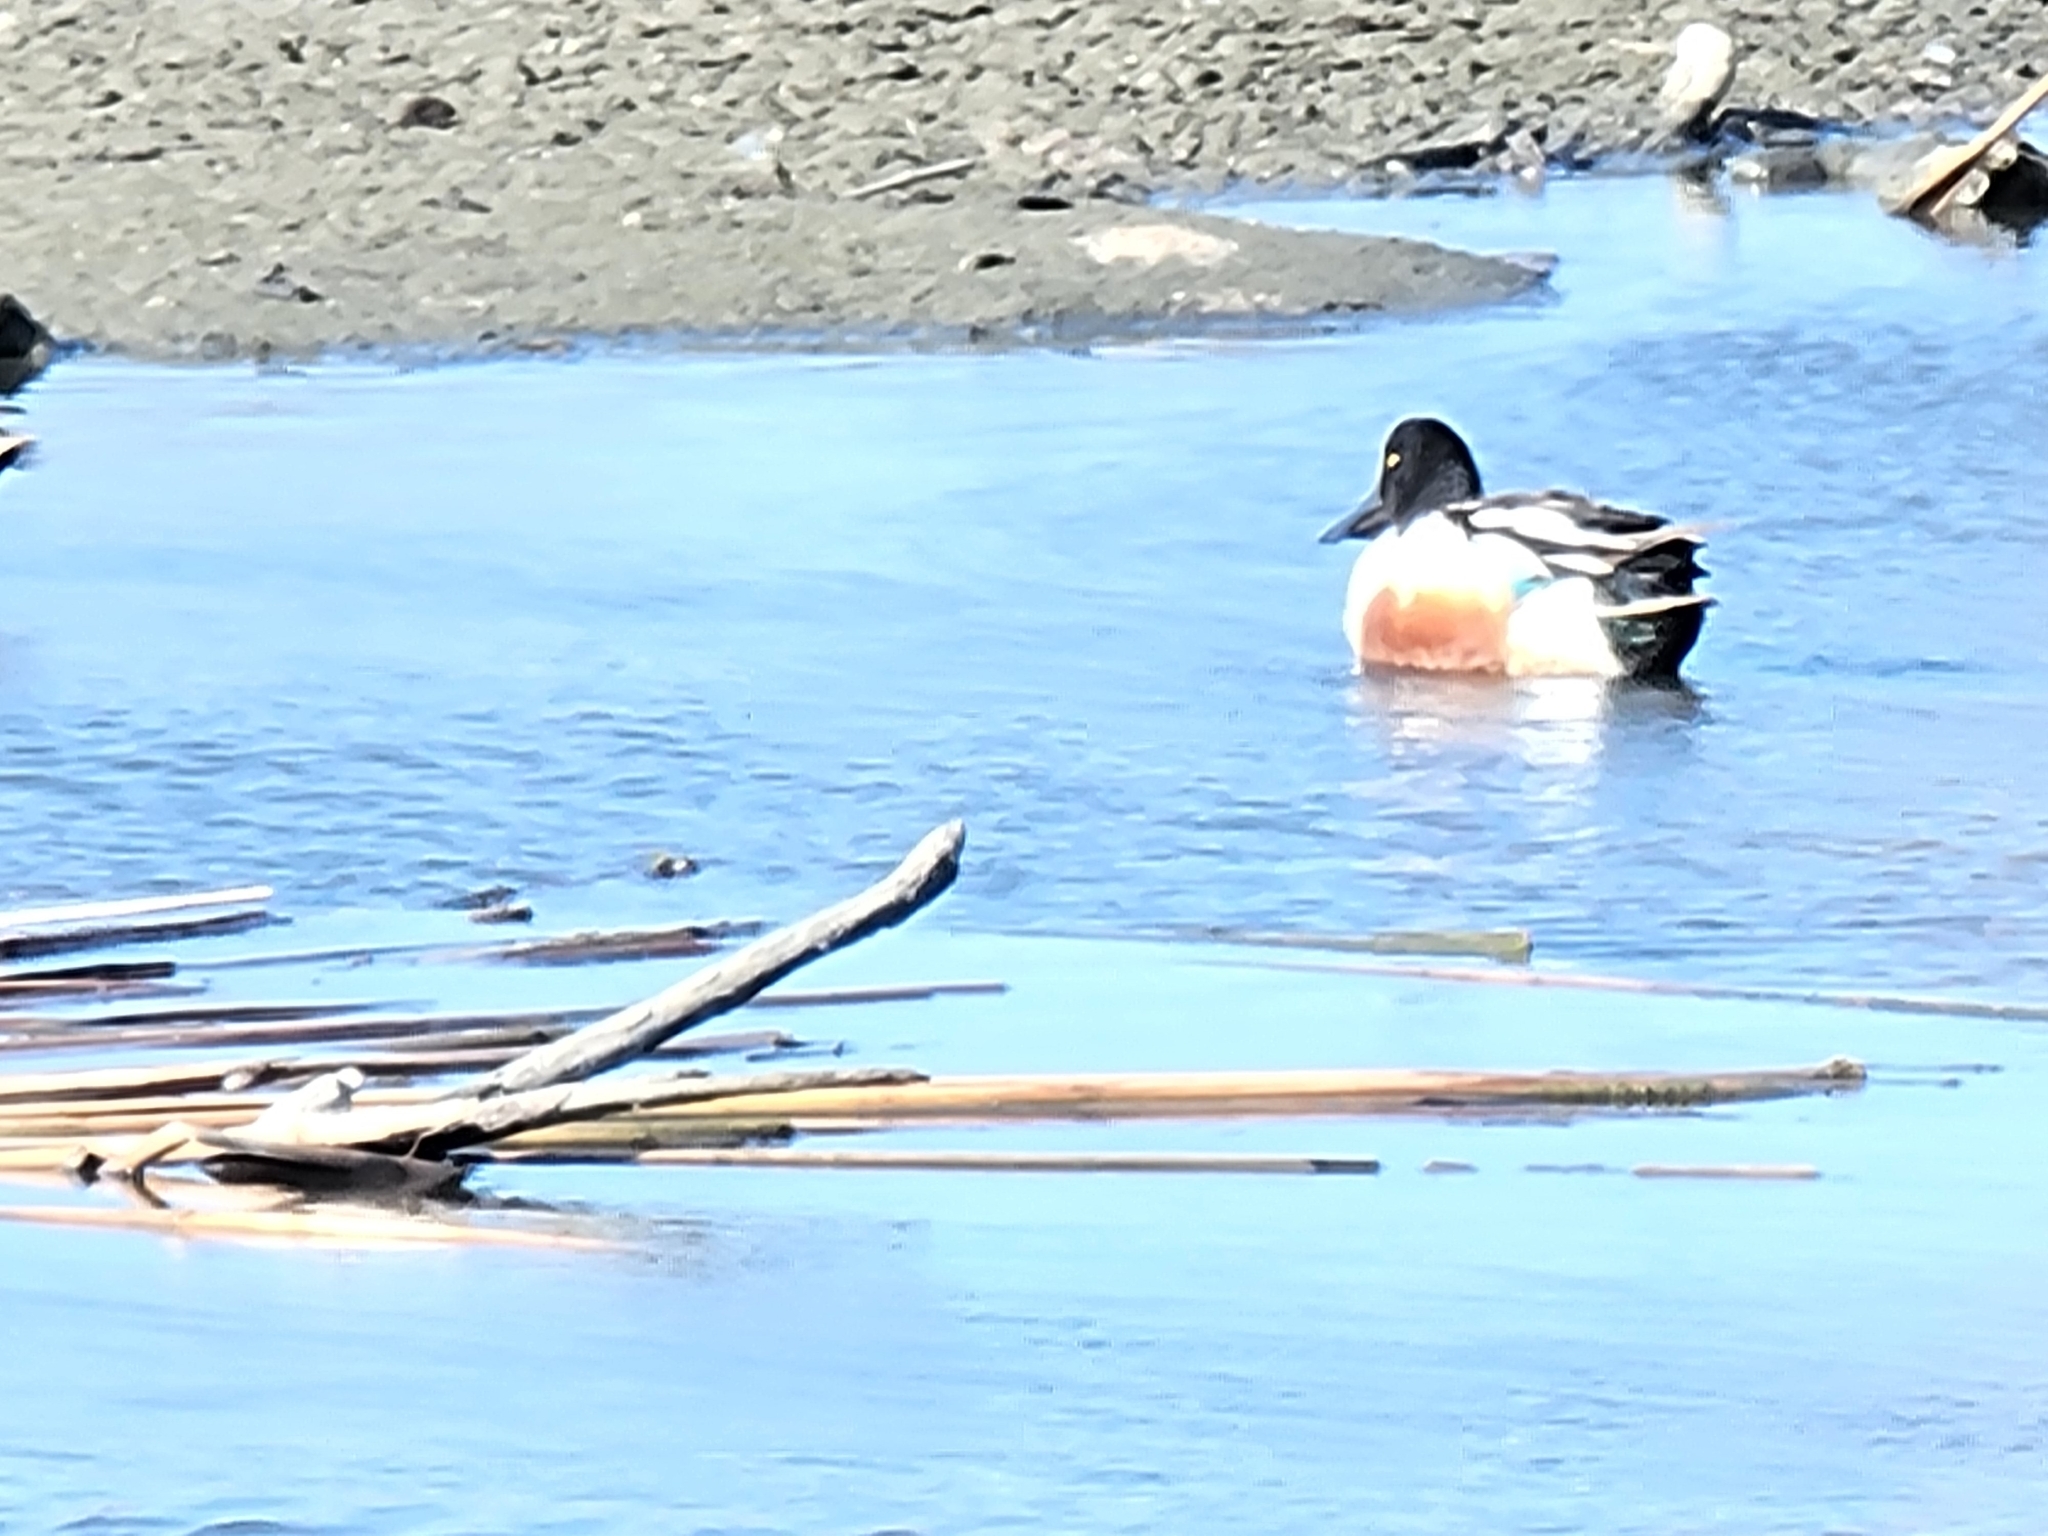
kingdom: Animalia
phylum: Chordata
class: Aves
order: Anseriformes
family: Anatidae
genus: Spatula
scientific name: Spatula clypeata
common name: Northern shoveler
